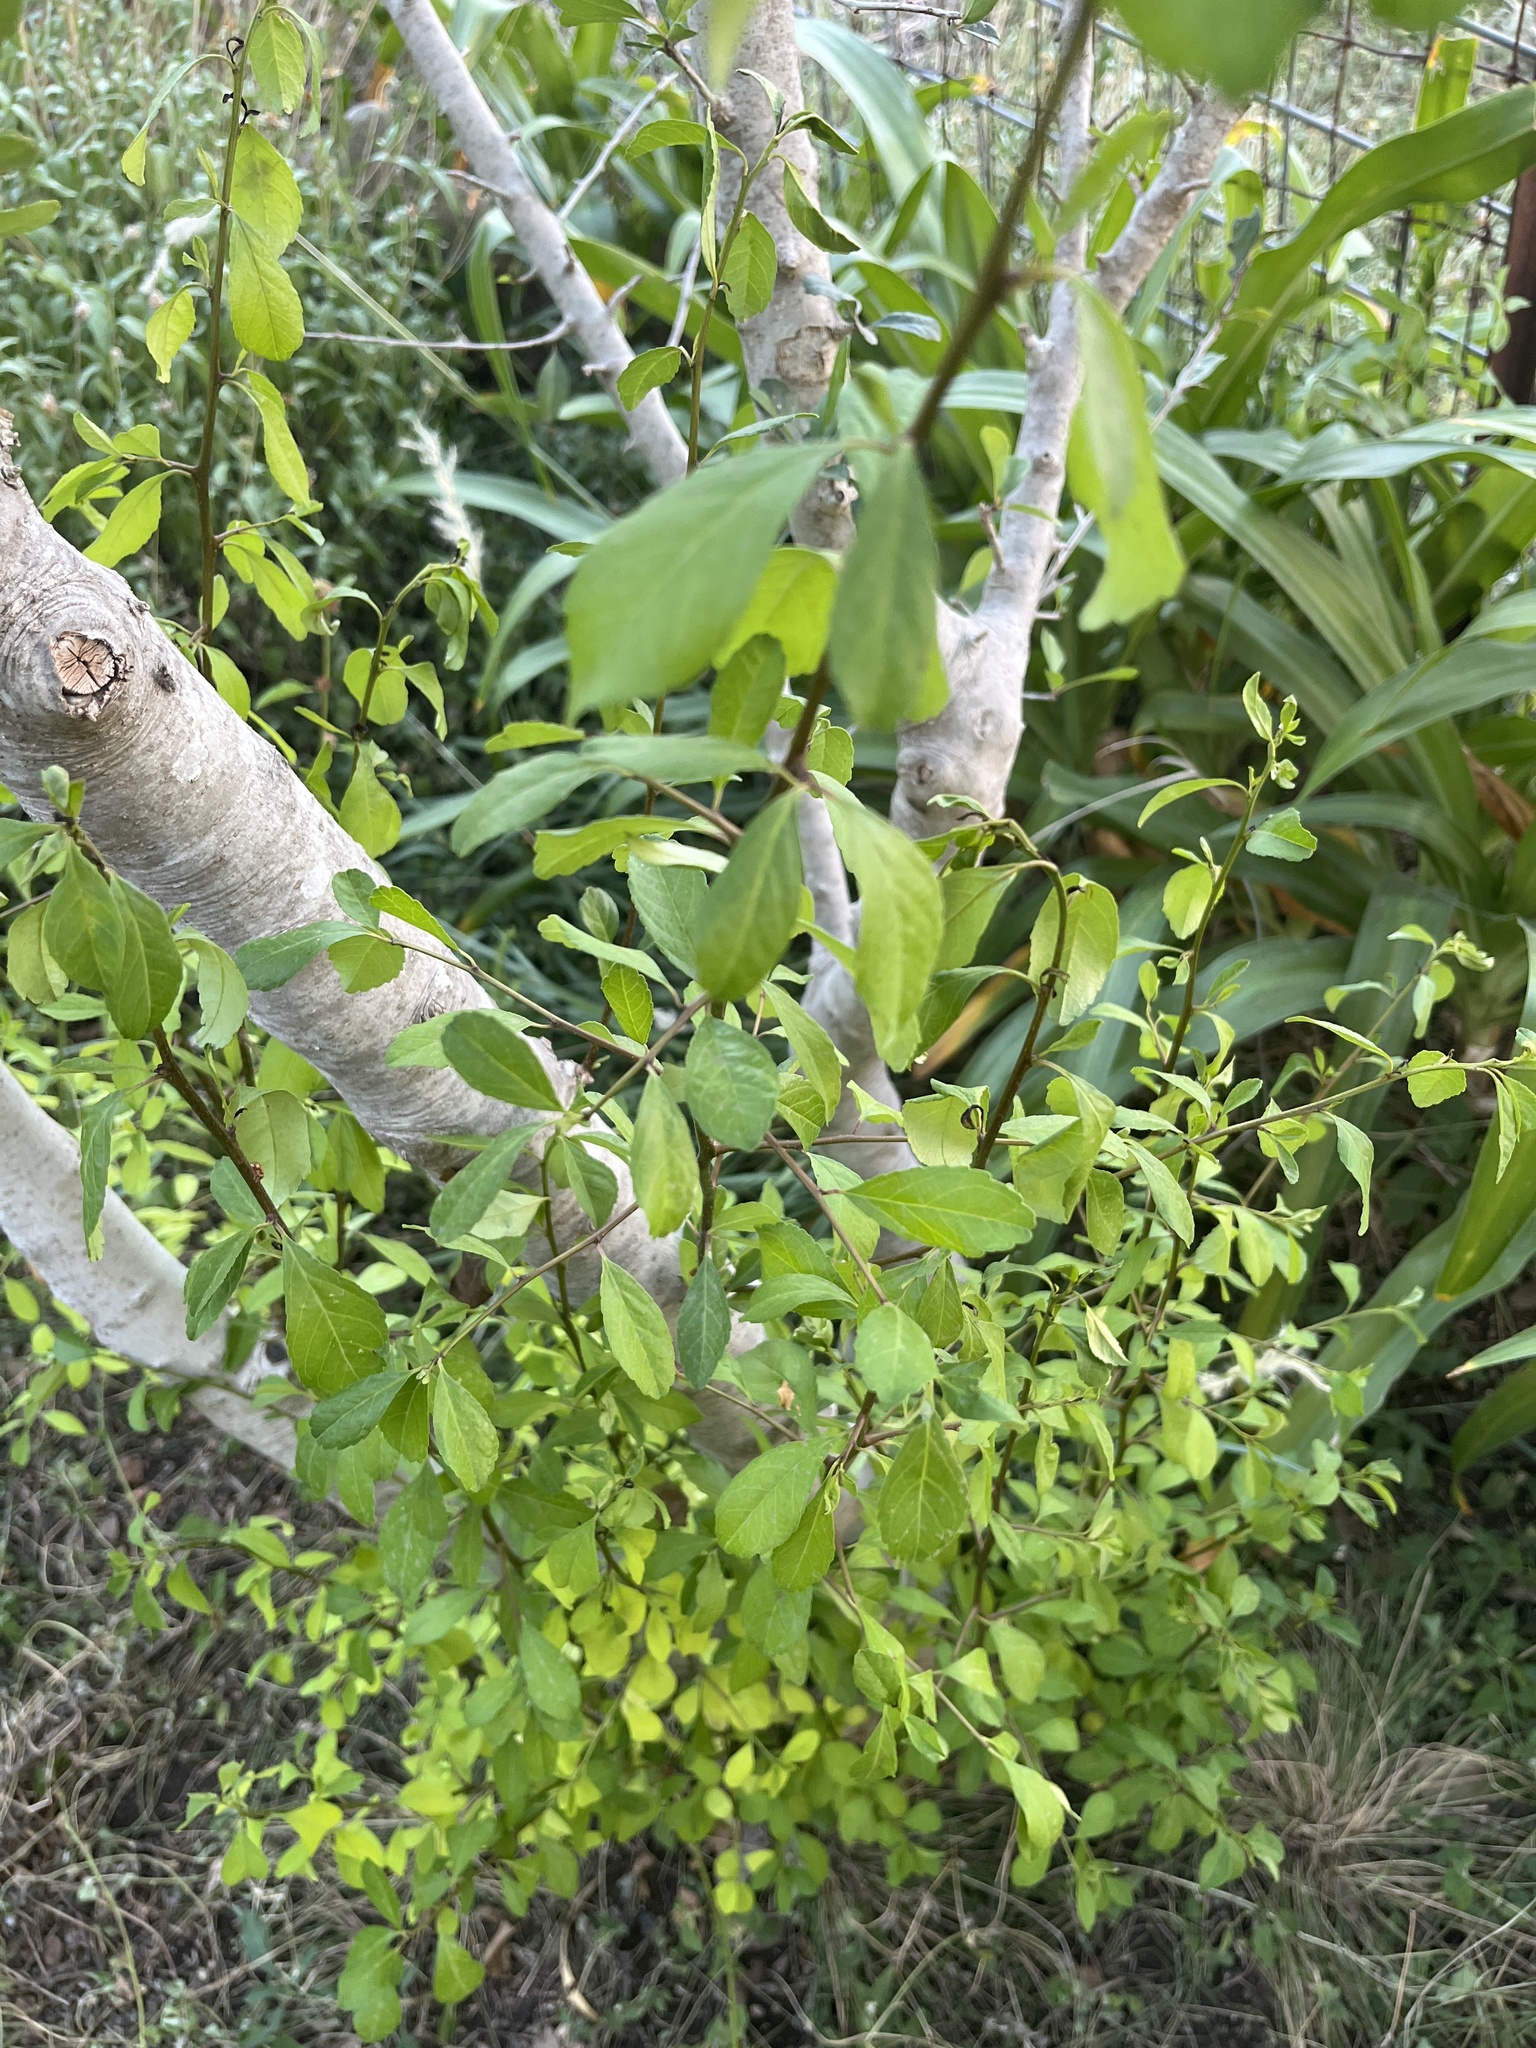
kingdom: Plantae
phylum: Tracheophyta
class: Magnoliopsida
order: Aquifoliales
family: Aquifoliaceae
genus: Ilex
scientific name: Ilex decidua
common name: Possum-haw
